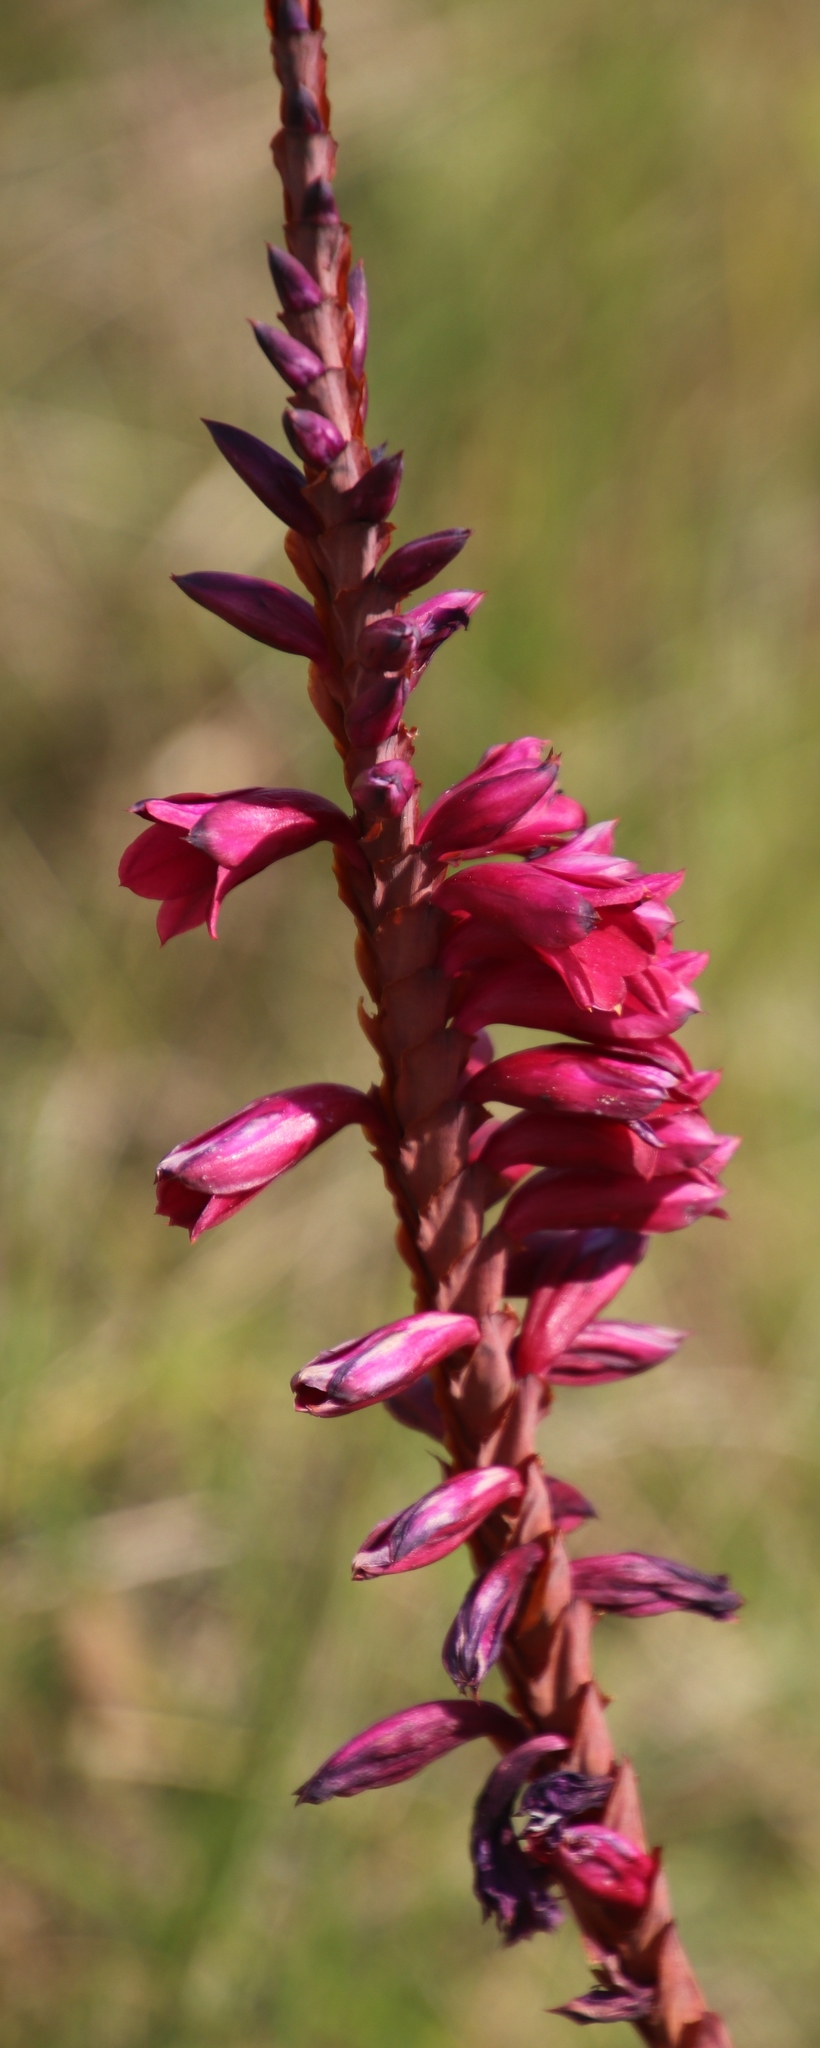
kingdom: Plantae
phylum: Tracheophyta
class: Liliopsida
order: Asparagales
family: Iridaceae
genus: Watsonia
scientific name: Watsonia pulchra
